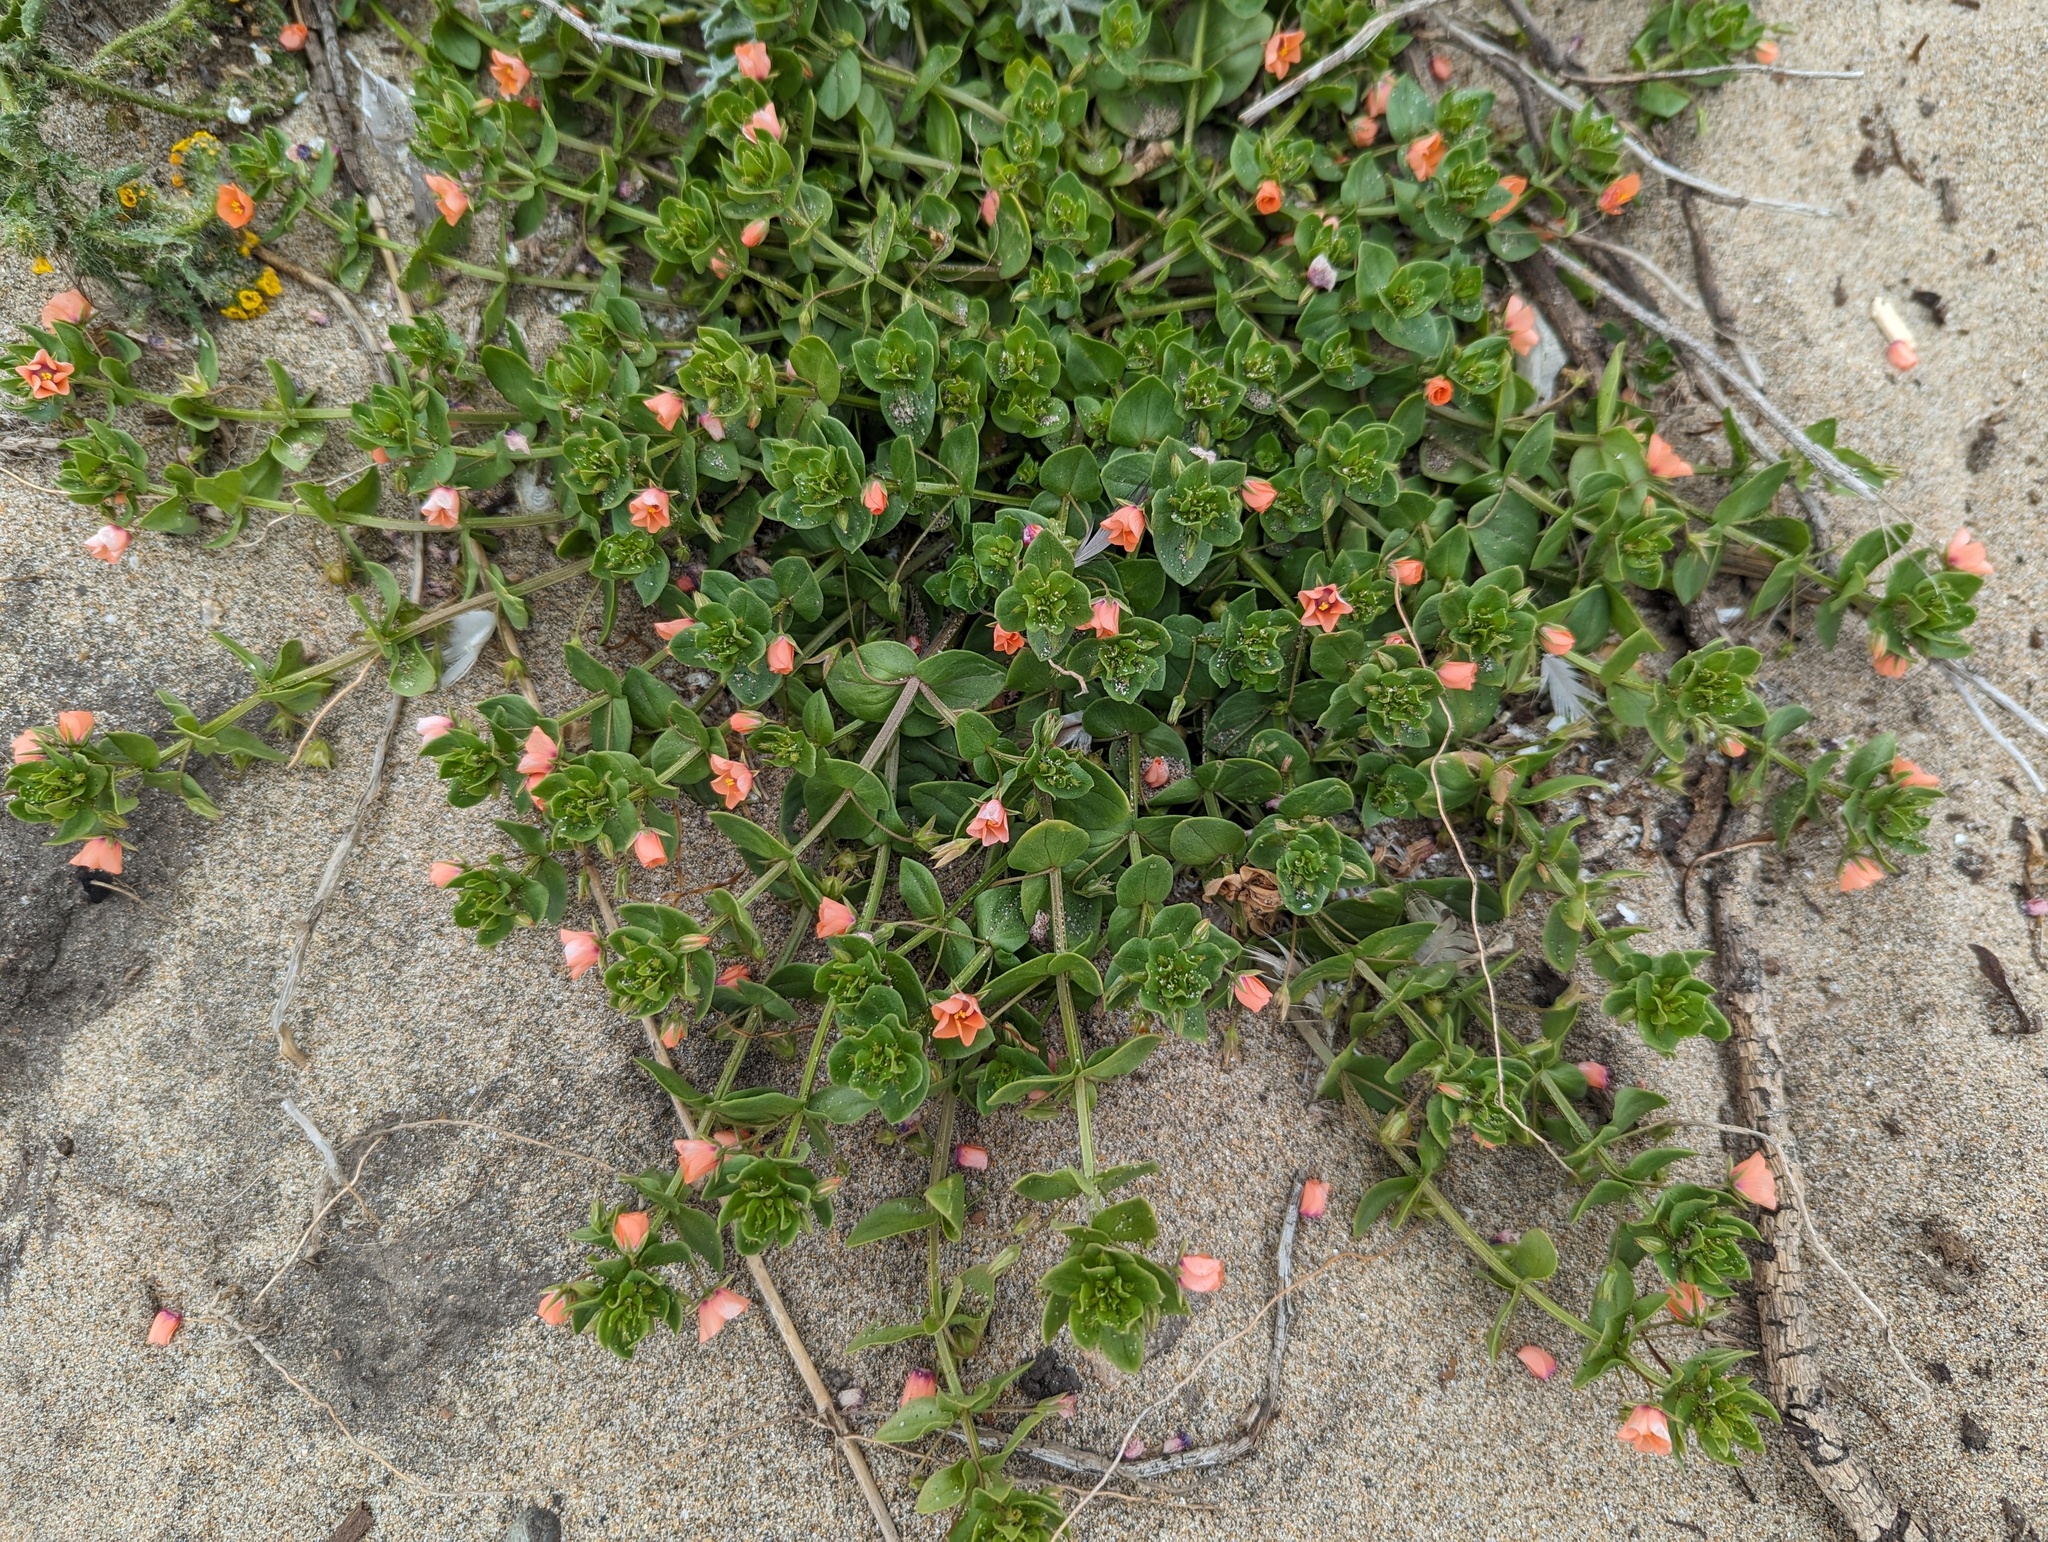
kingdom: Plantae
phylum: Tracheophyta
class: Magnoliopsida
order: Ericales
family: Primulaceae
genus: Lysimachia
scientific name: Lysimachia arvensis
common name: Scarlet pimpernel
